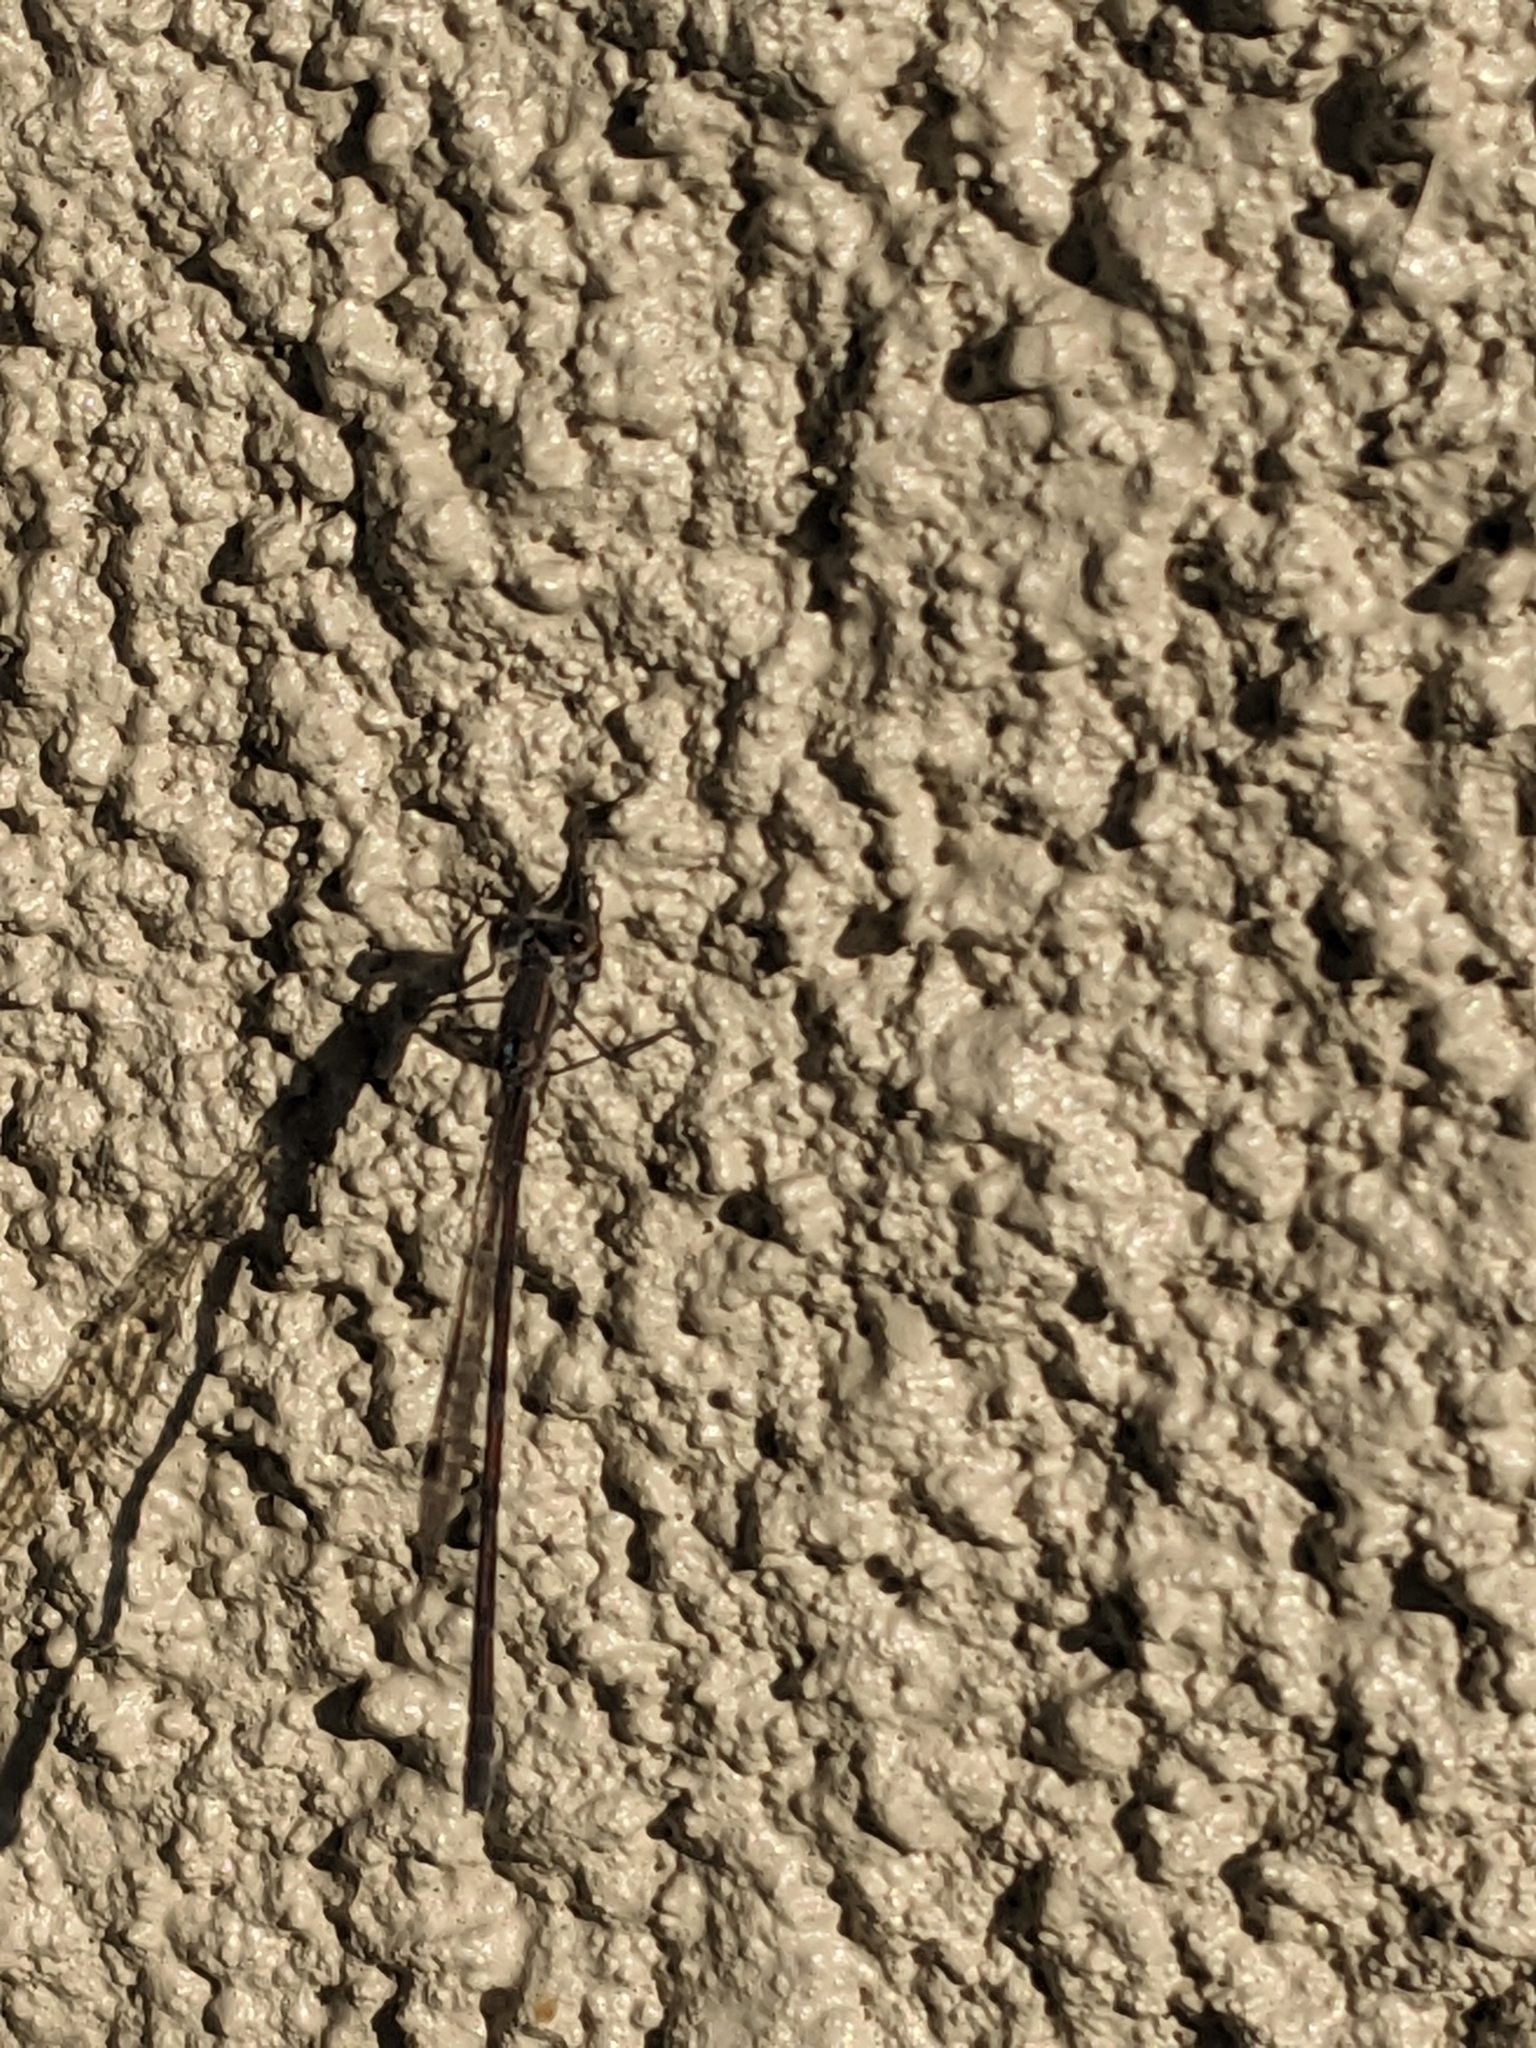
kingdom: Animalia
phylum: Arthropoda
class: Insecta
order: Odonata
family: Lestidae
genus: Austrolestes
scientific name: Austrolestes leda
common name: Wandering ringtail
